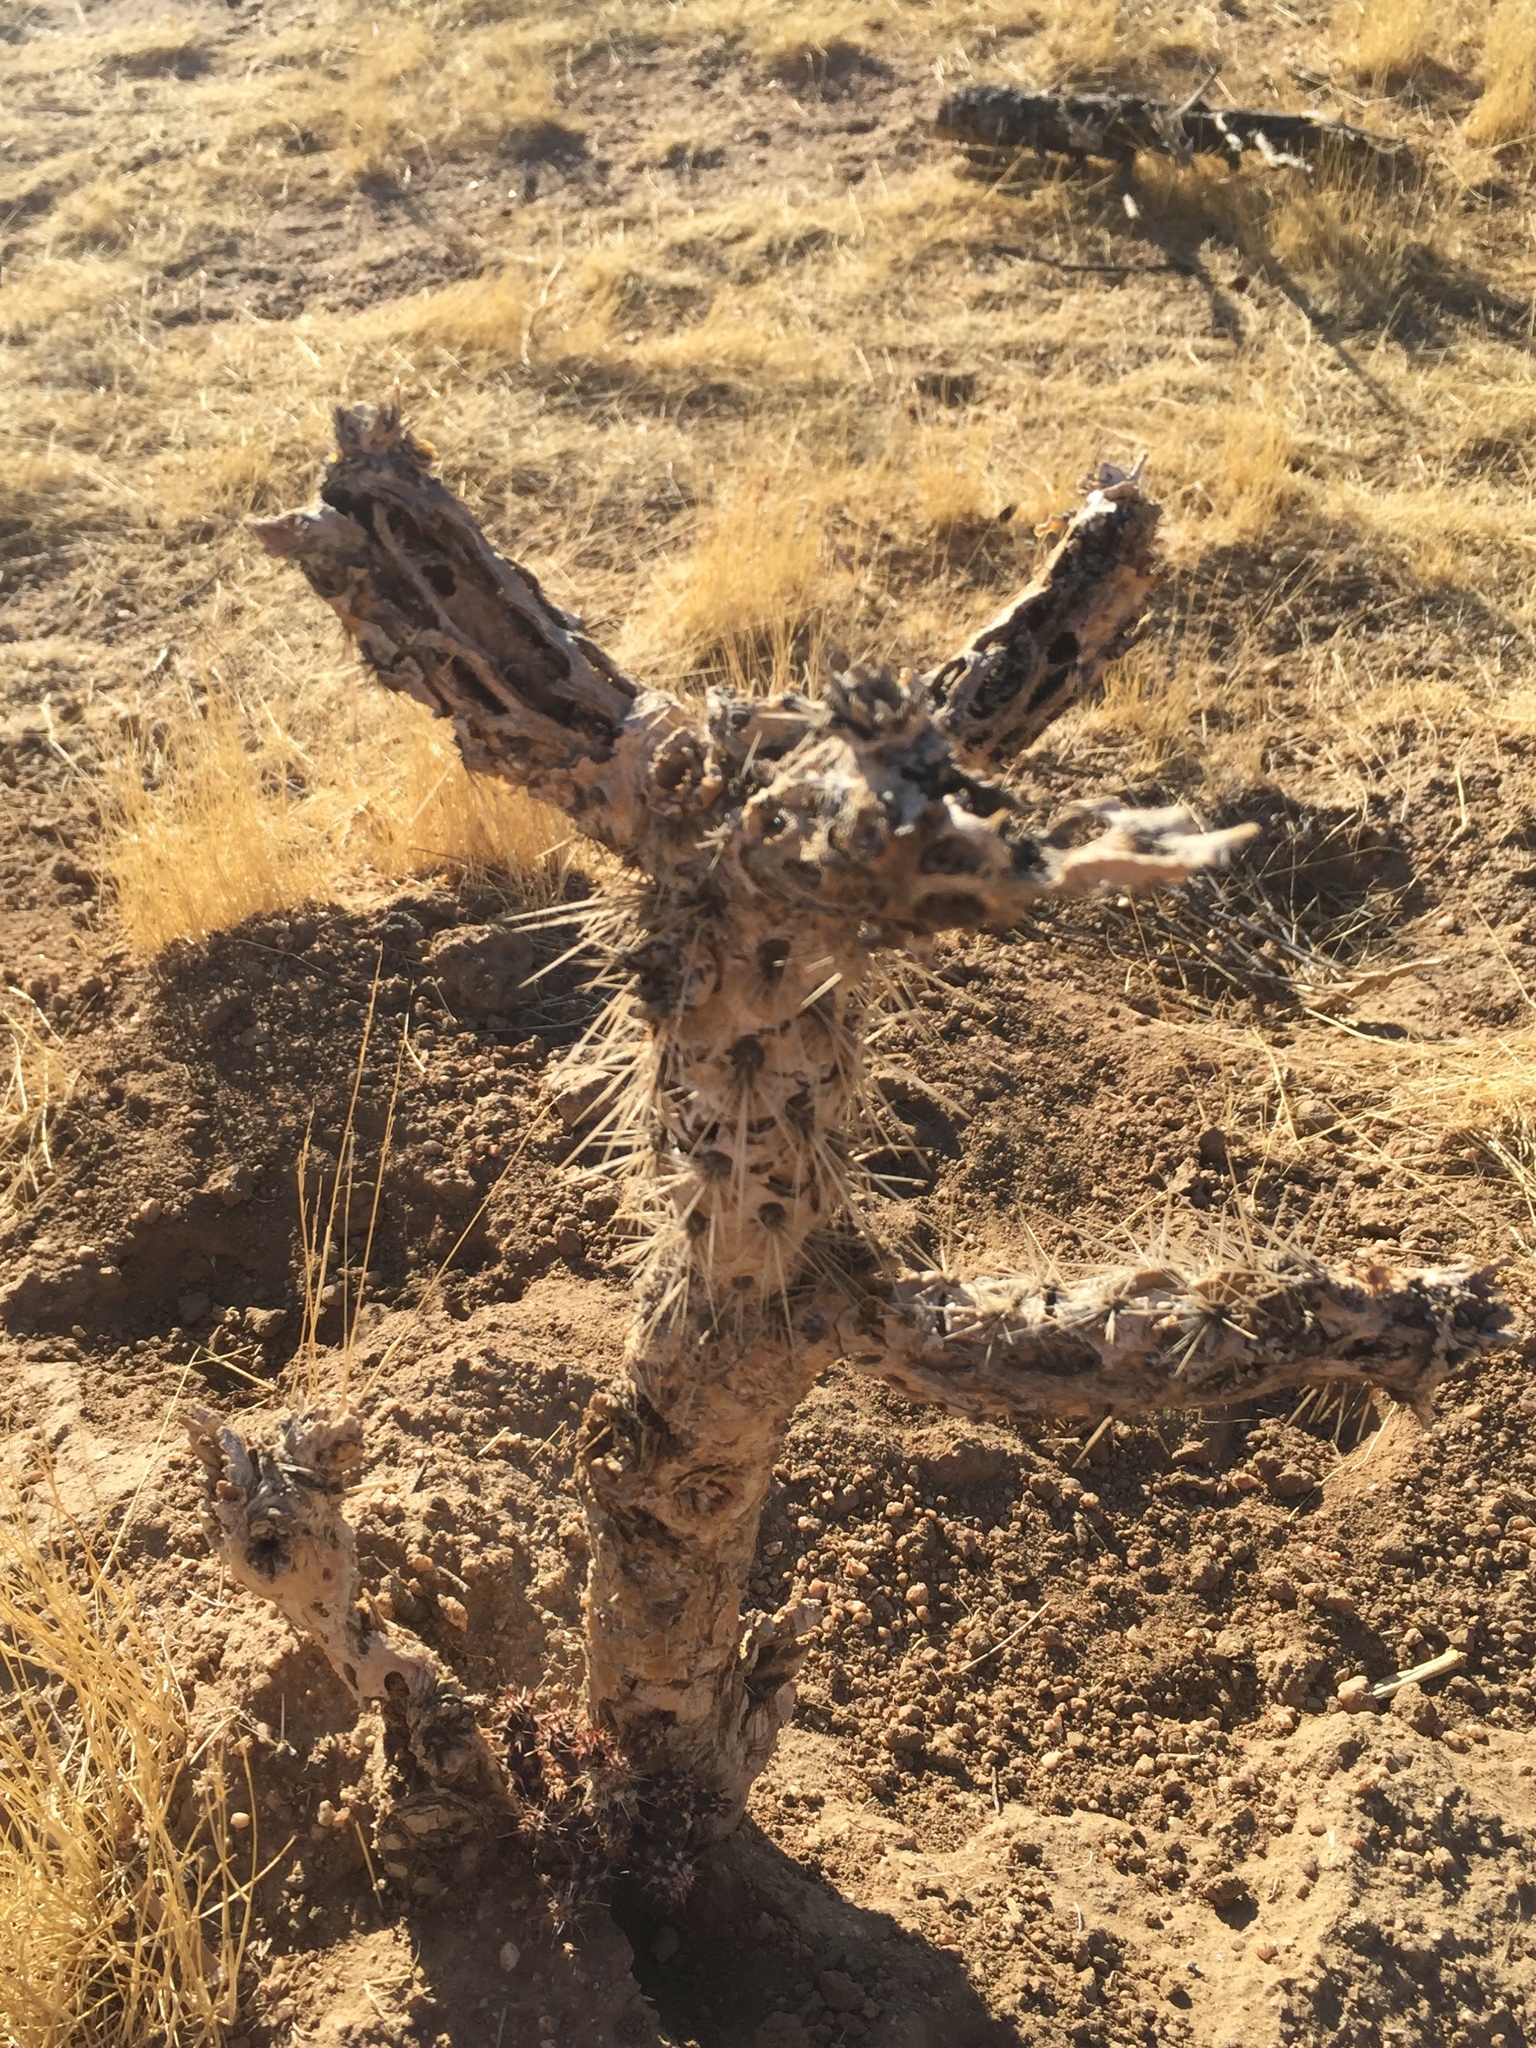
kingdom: Plantae
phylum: Tracheophyta
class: Magnoliopsida
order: Caryophyllales
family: Cactaceae
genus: Cylindropuntia
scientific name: Cylindropuntia echinocarpa
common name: Ground cholla
